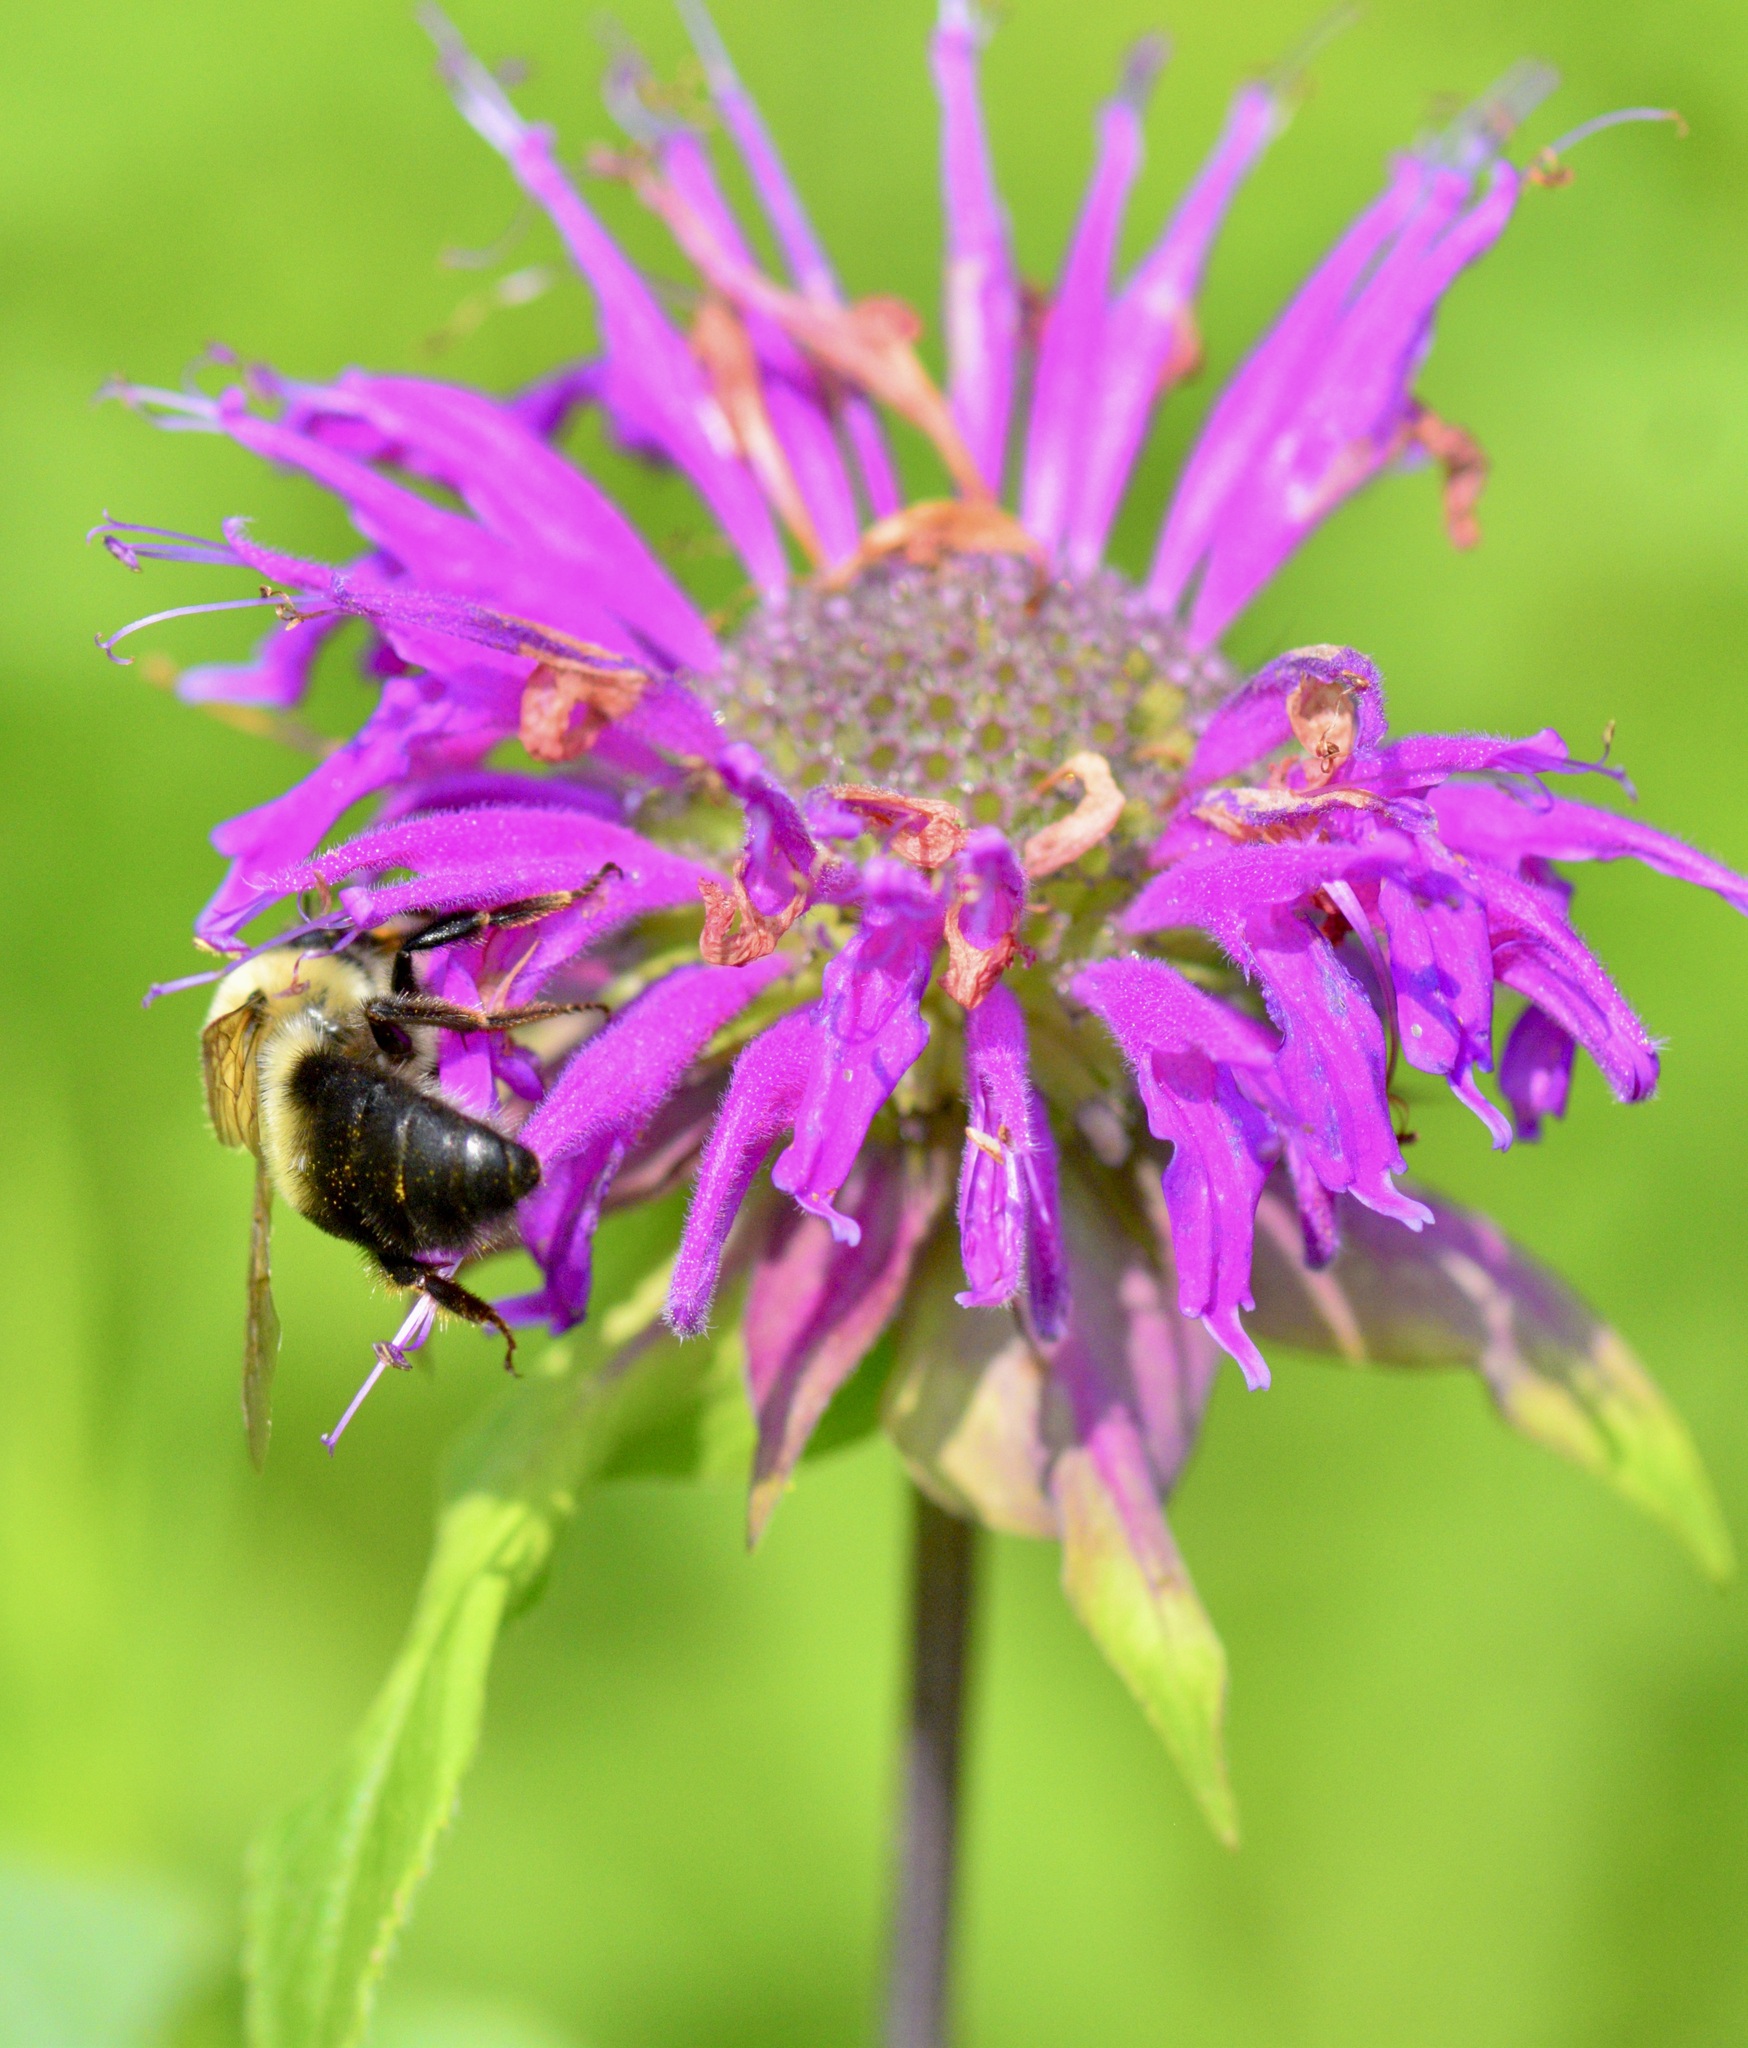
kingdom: Animalia
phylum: Arthropoda
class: Insecta
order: Hymenoptera
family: Apidae
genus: Bombus
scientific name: Bombus bimaculatus
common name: Two-spotted bumble bee
